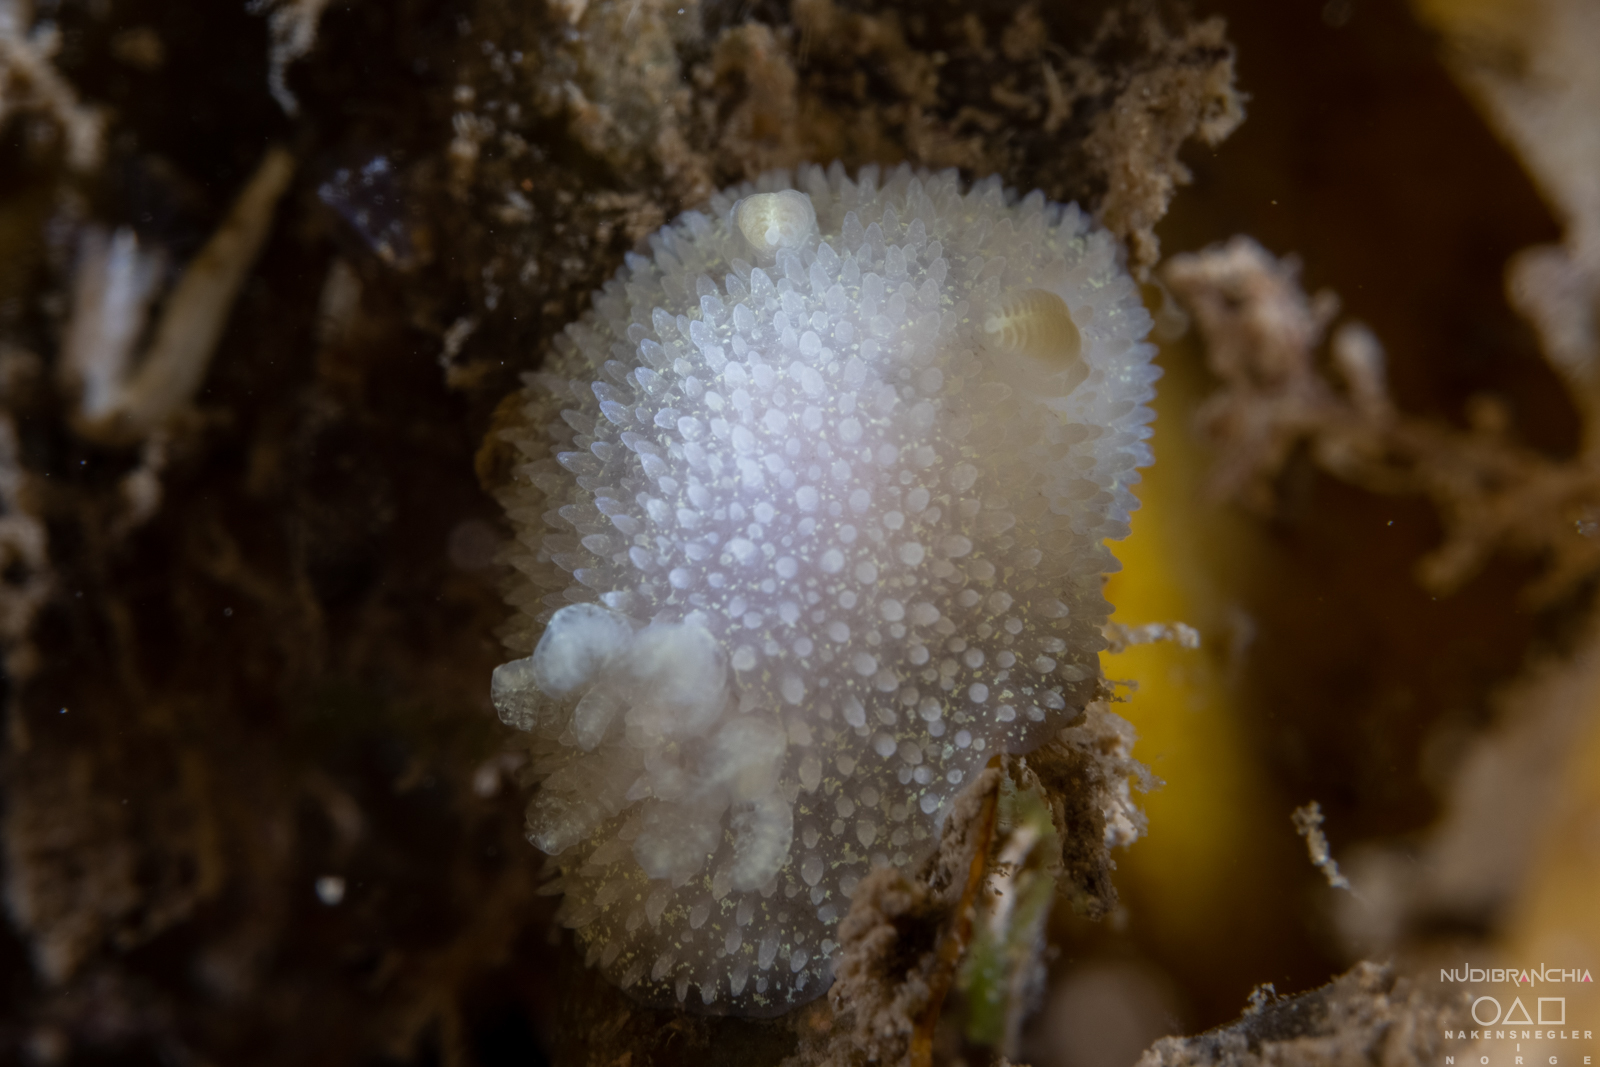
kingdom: Animalia
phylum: Mollusca
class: Gastropoda
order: Nudibranchia
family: Onchidorididae
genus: Acanthodoris
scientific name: Acanthodoris pilosa
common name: Hairy spiny doris
